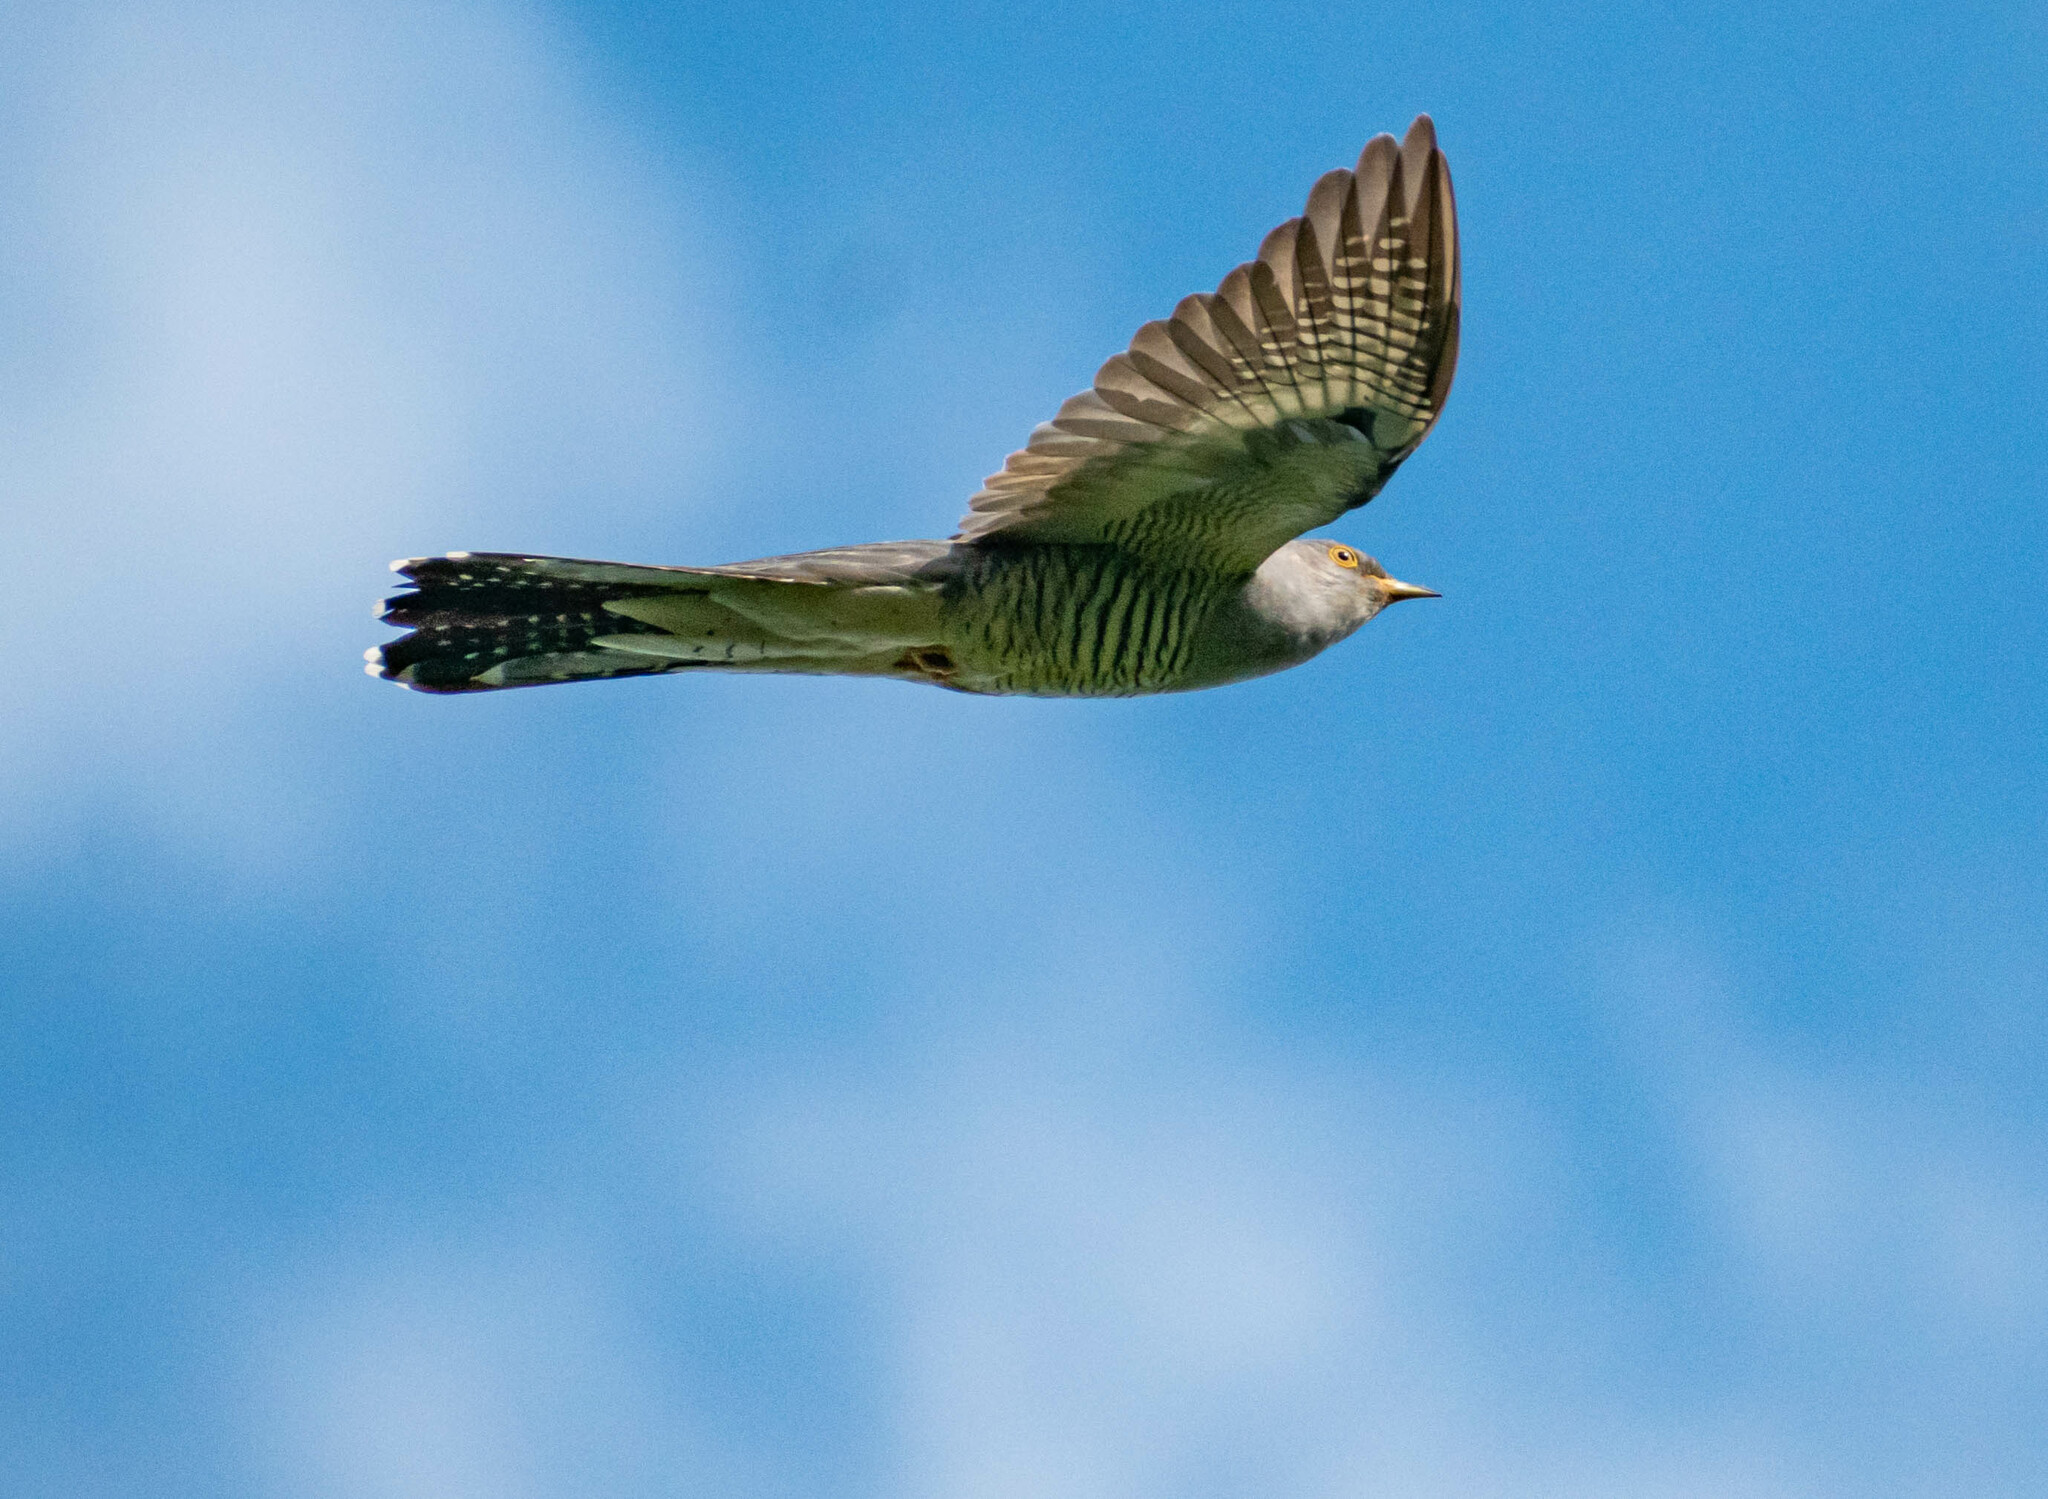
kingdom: Animalia
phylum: Chordata
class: Aves
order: Cuculiformes
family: Cuculidae
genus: Cuculus
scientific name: Cuculus canorus
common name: Common cuckoo
